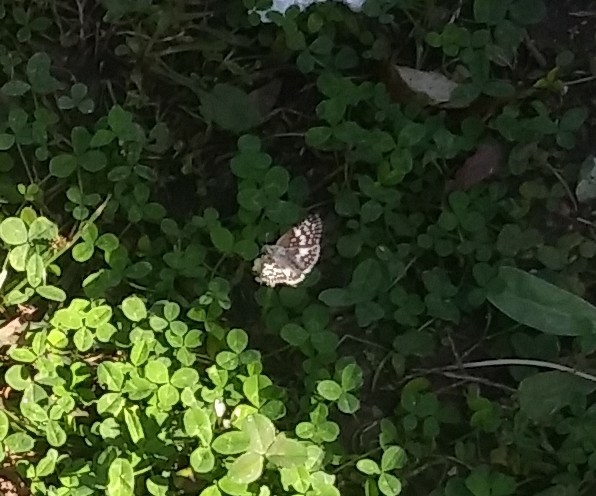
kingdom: Animalia
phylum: Arthropoda
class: Insecta
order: Lepidoptera
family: Hesperiidae
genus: Burnsius
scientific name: Burnsius communis
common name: Common checkered-skipper
